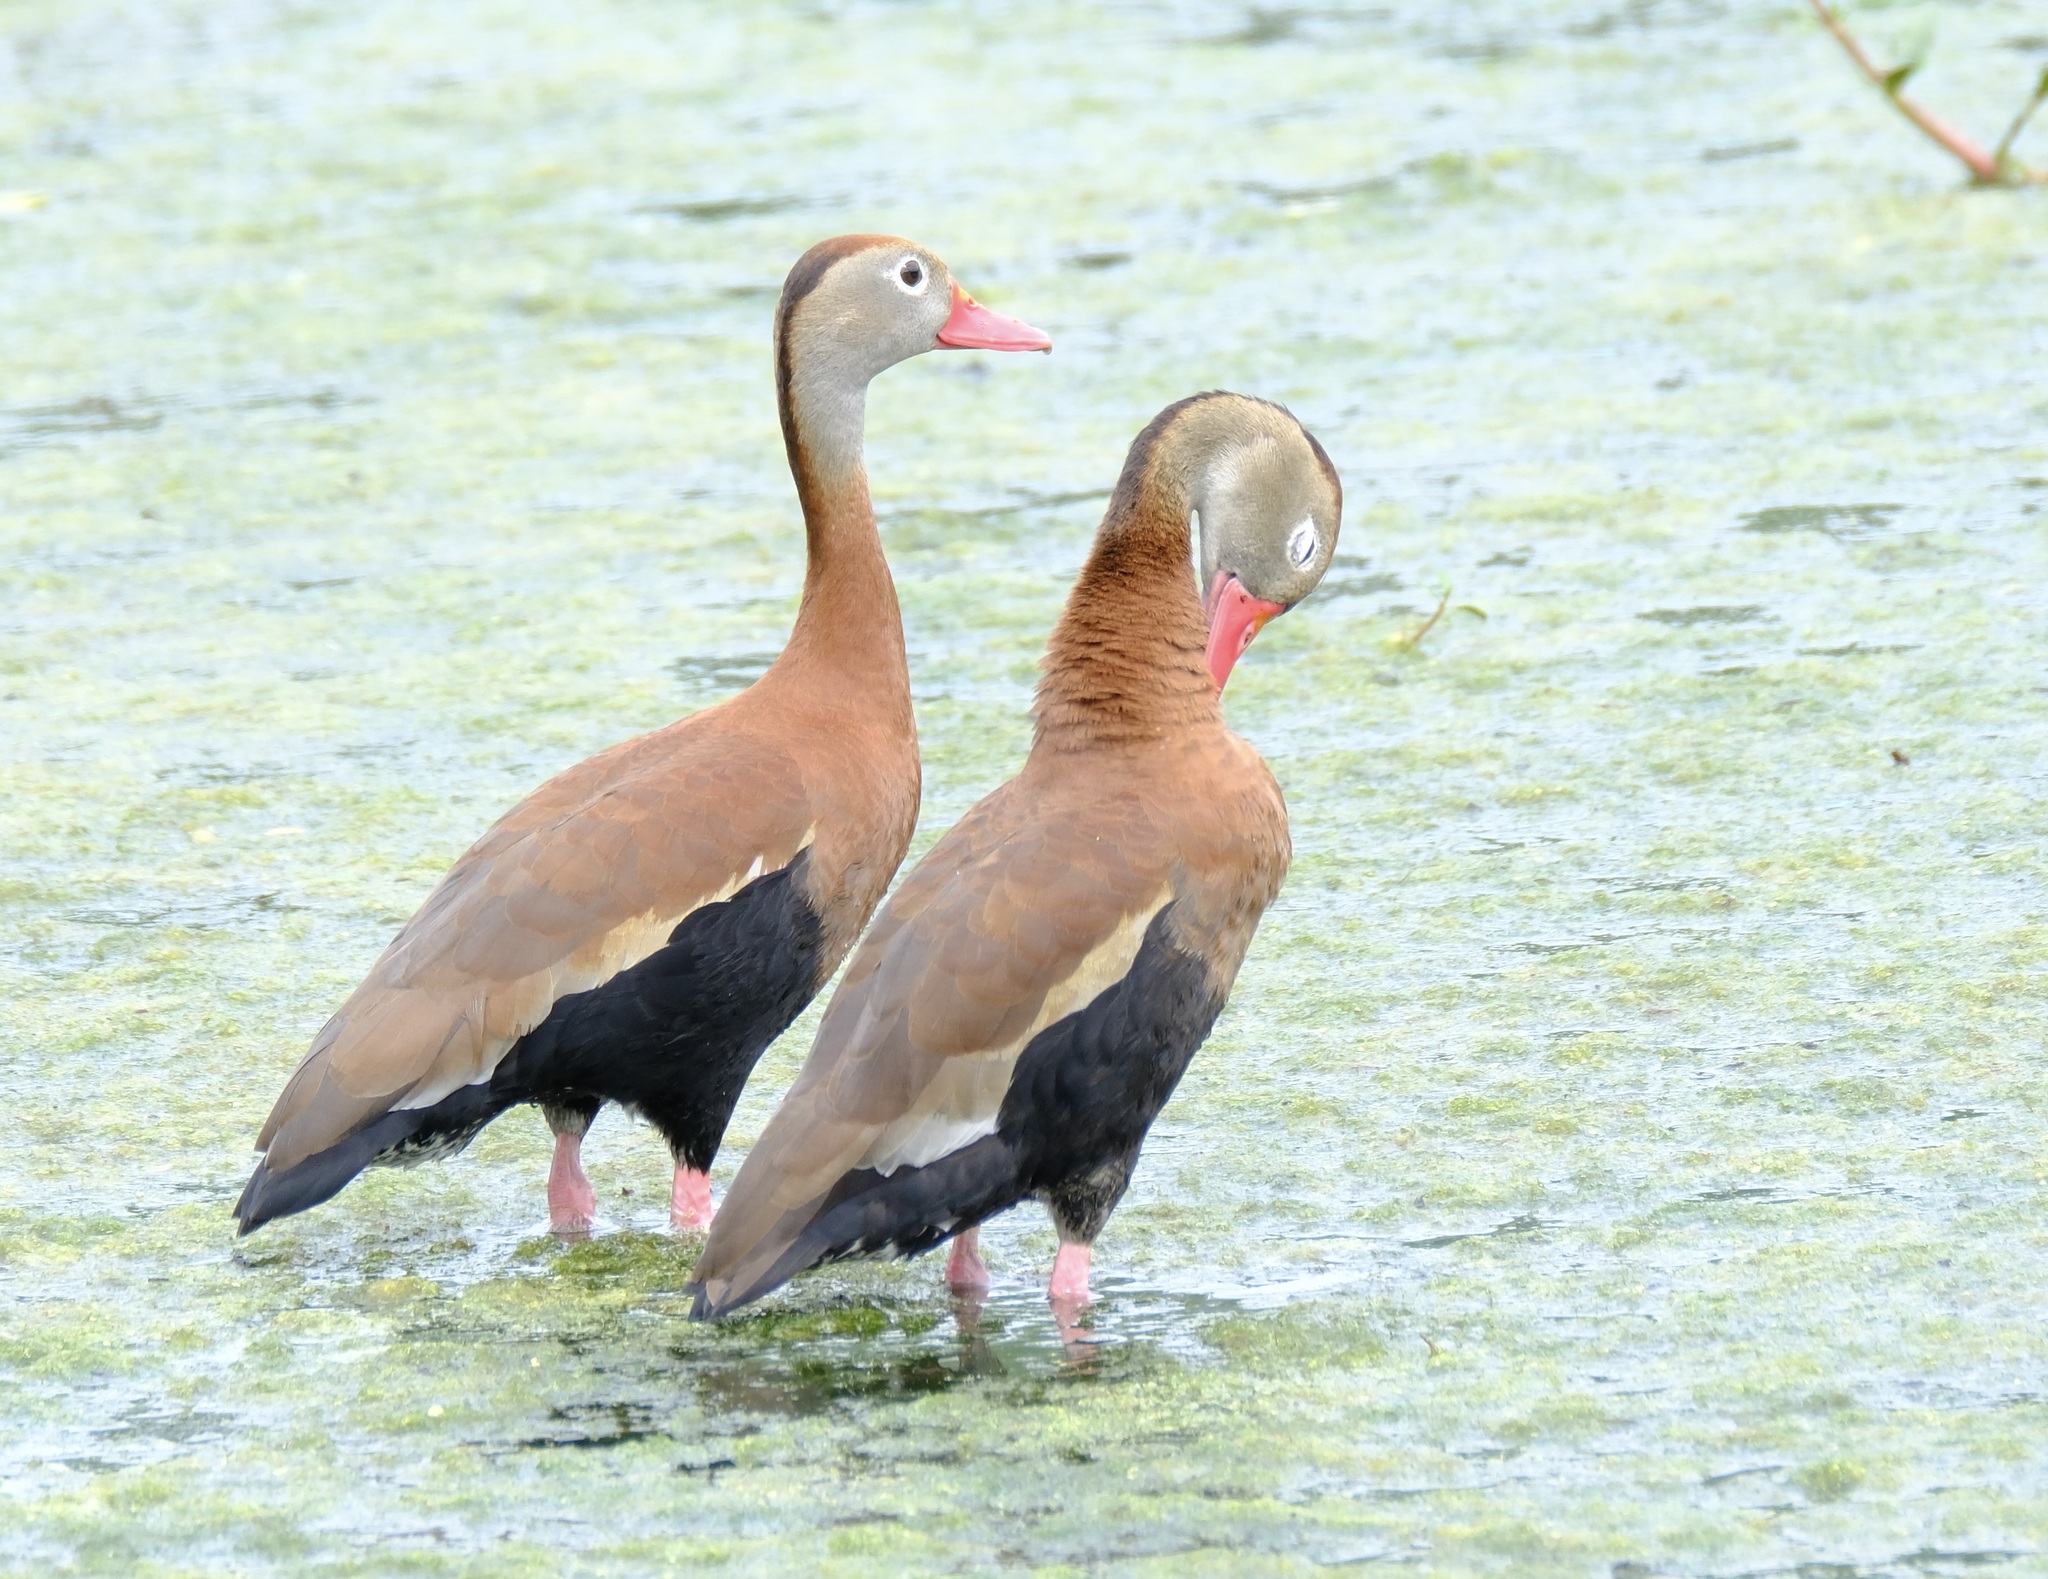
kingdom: Animalia
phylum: Chordata
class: Aves
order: Anseriformes
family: Anatidae
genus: Dendrocygna
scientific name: Dendrocygna autumnalis
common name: Black-bellied whistling duck
